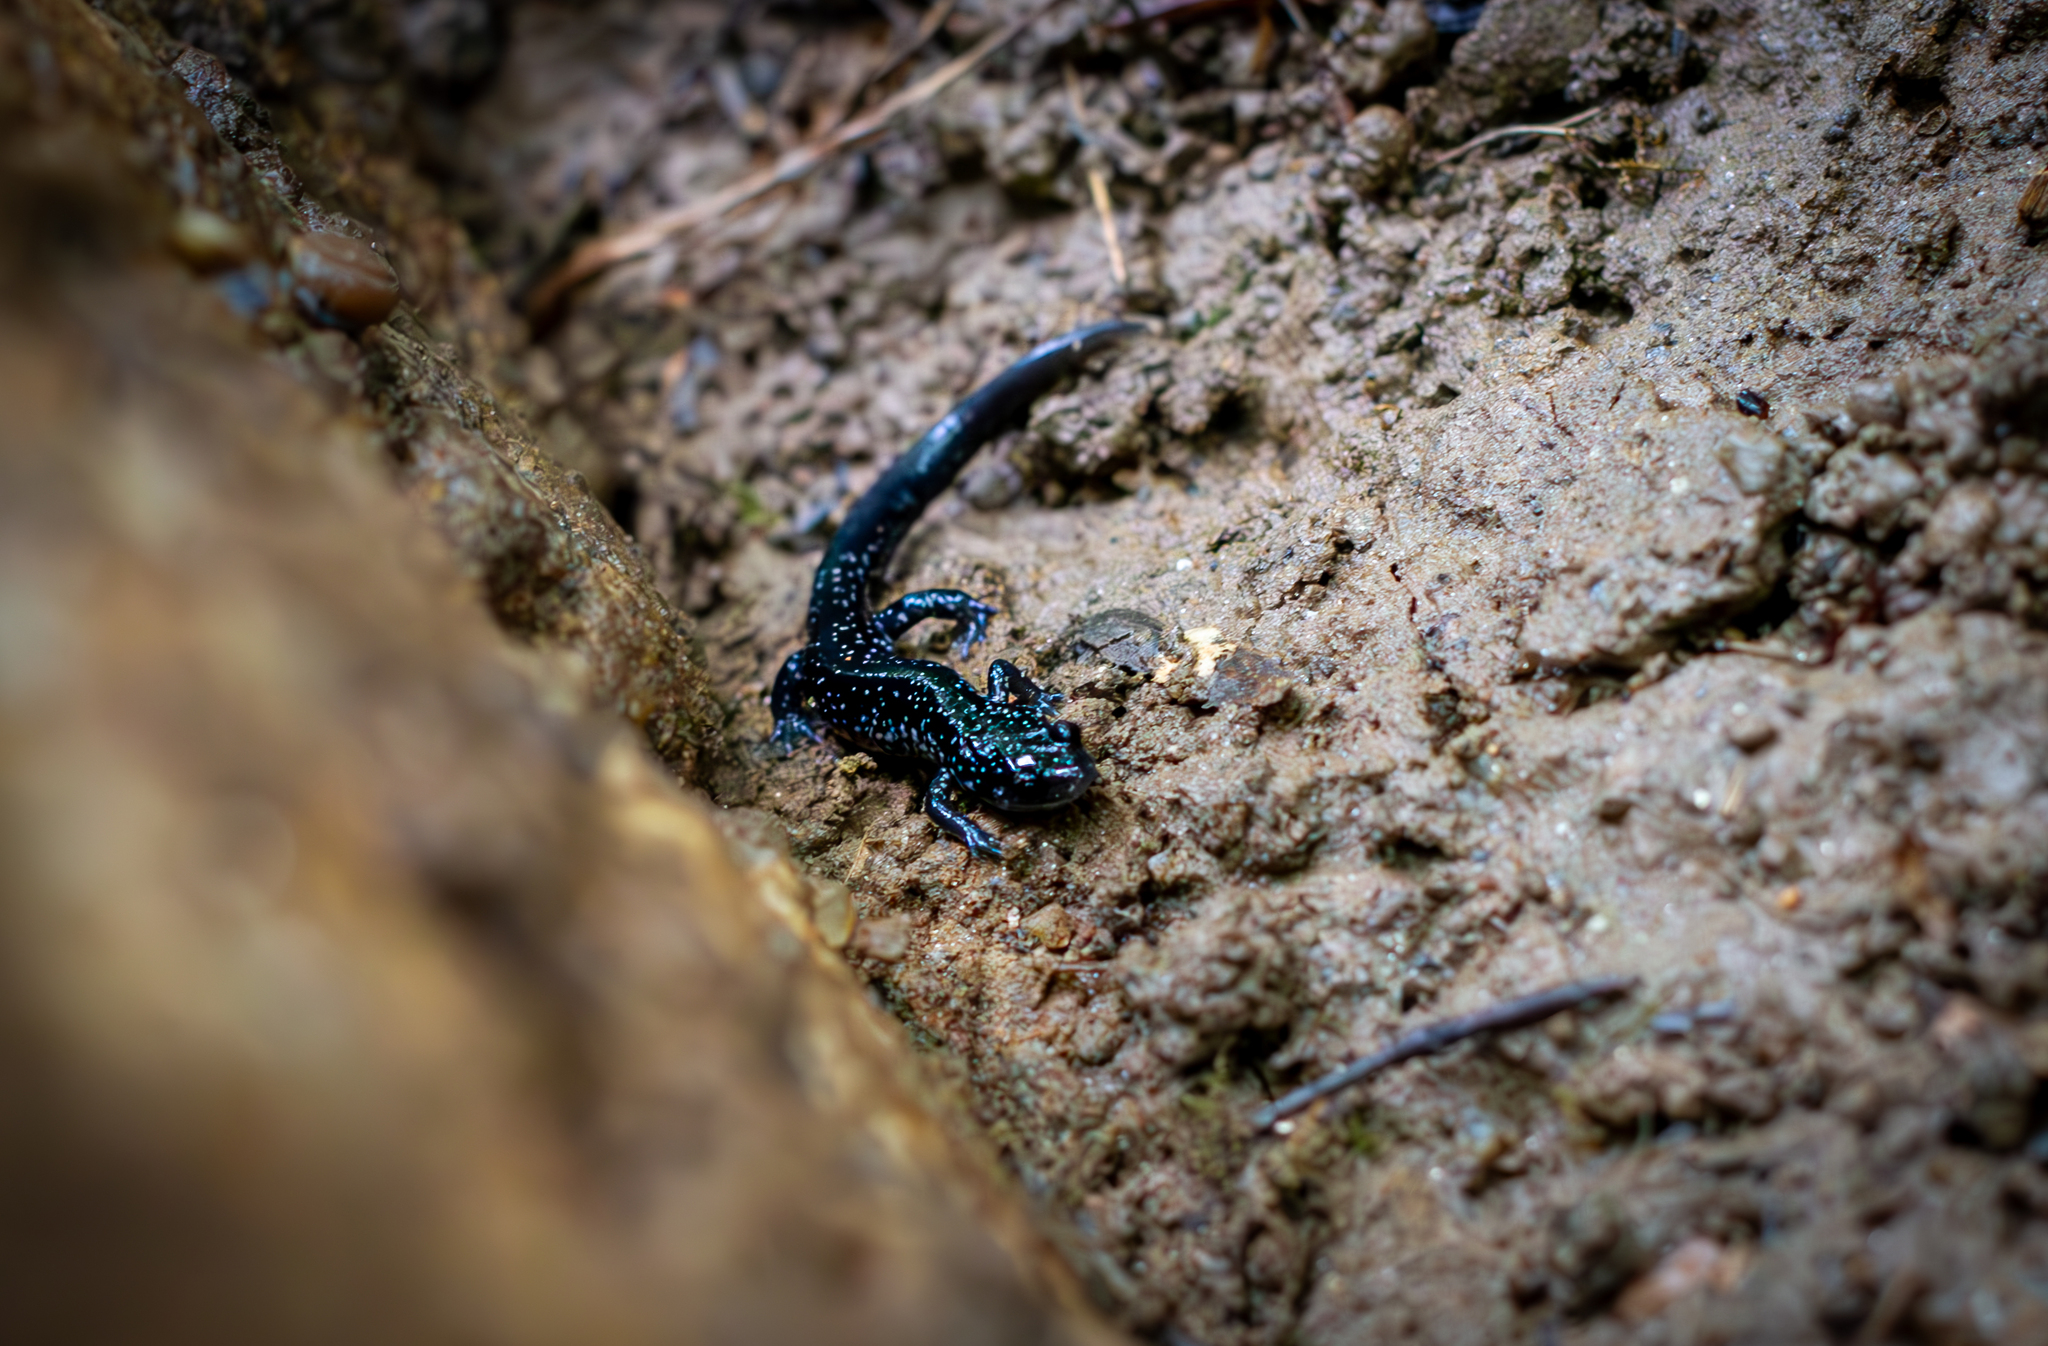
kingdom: Animalia
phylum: Chordata
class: Amphibia
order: Caudata
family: Plethodontidae
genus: Plethodon
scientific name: Plethodon glutinosus
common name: Northern slimy salamander
